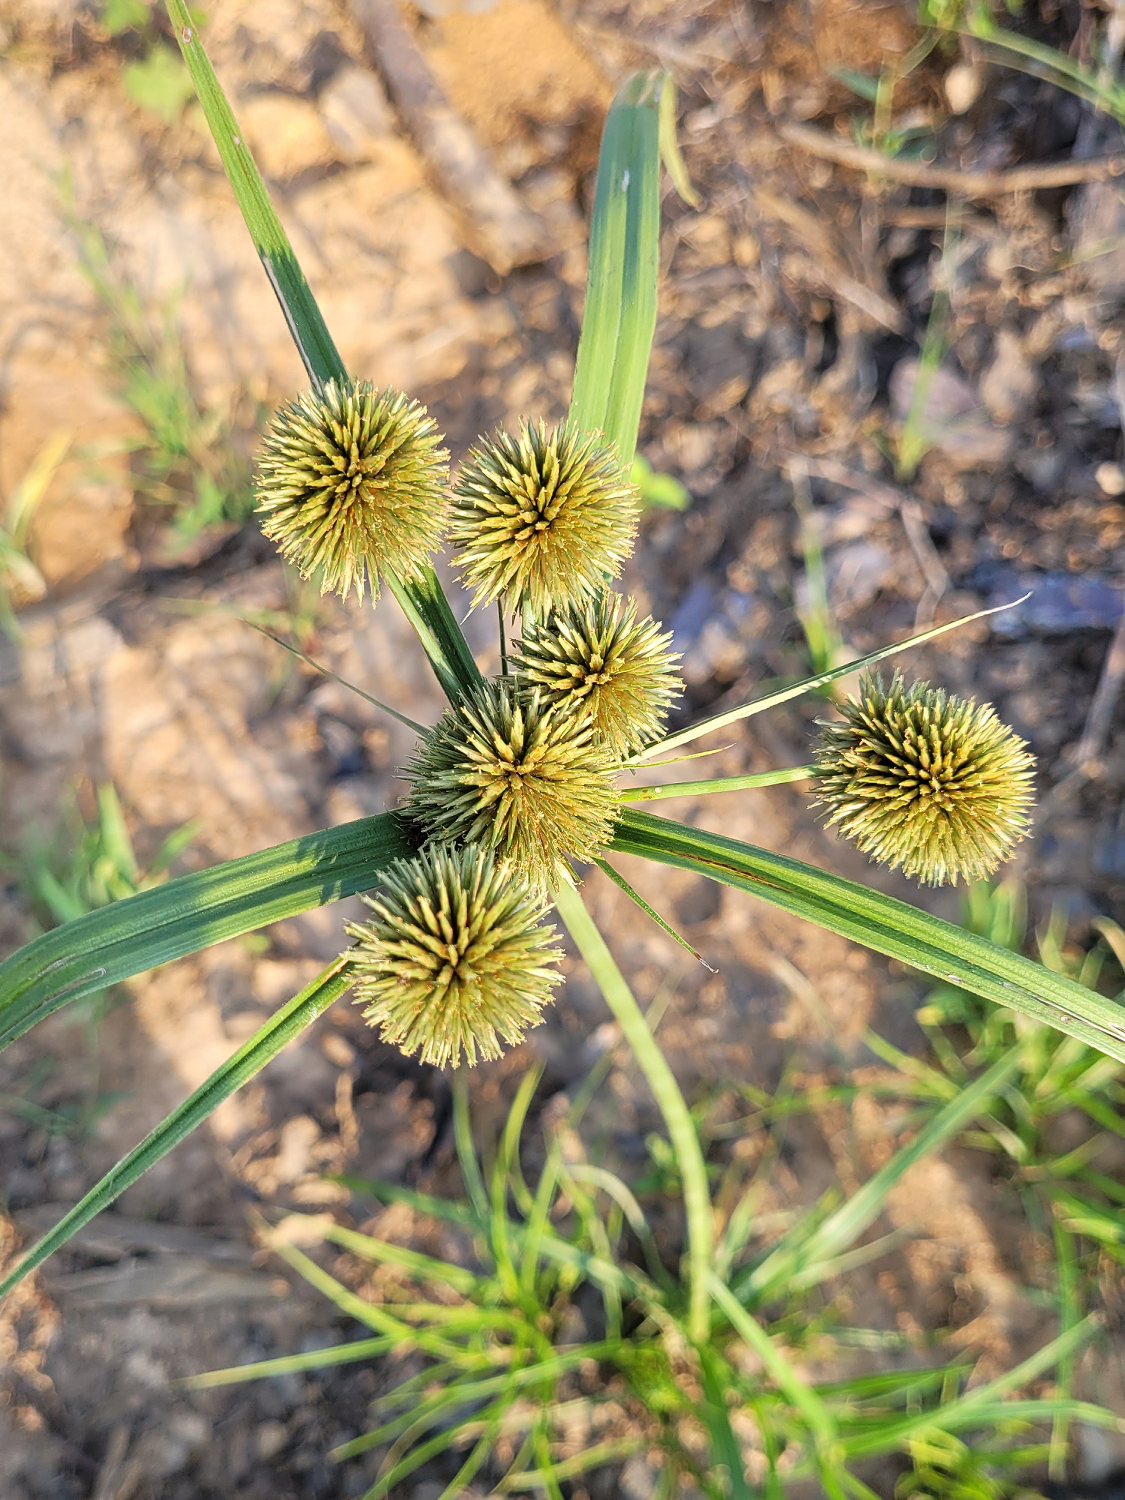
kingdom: Plantae
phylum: Tracheophyta
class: Liliopsida
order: Poales
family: Cyperaceae
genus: Cyperus
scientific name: Cyperus echinatus
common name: Teasel sedge
